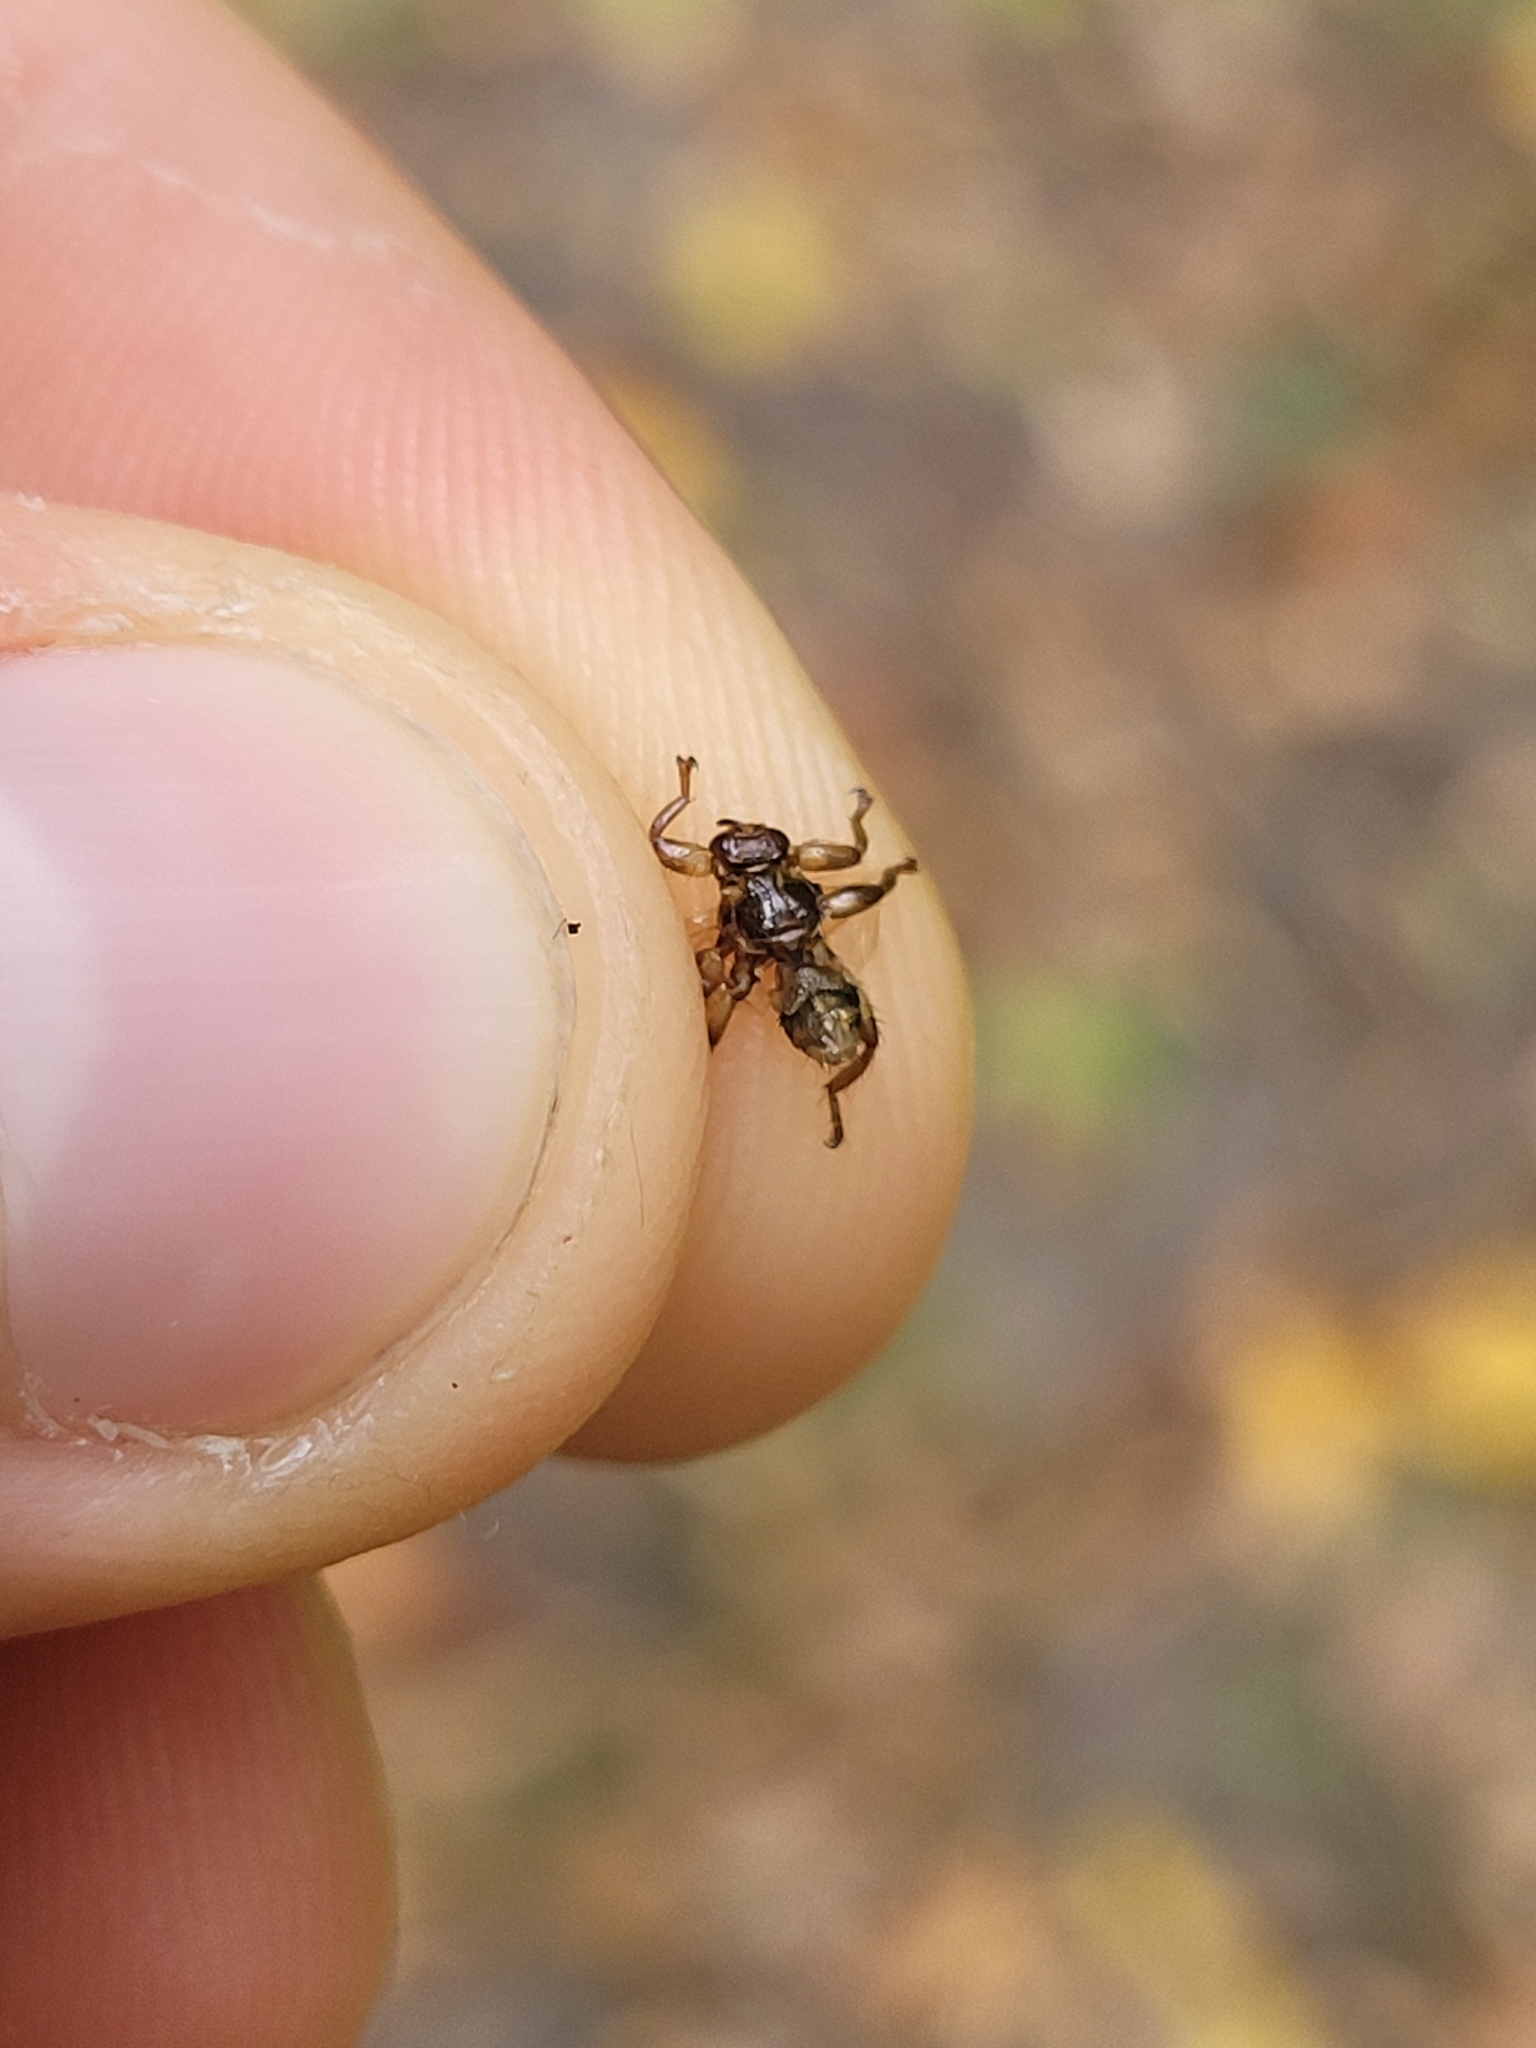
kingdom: Animalia
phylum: Arthropoda
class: Insecta
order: Diptera
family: Hippoboscidae
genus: Lipoptena
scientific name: Lipoptena cervi
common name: Deer ked
